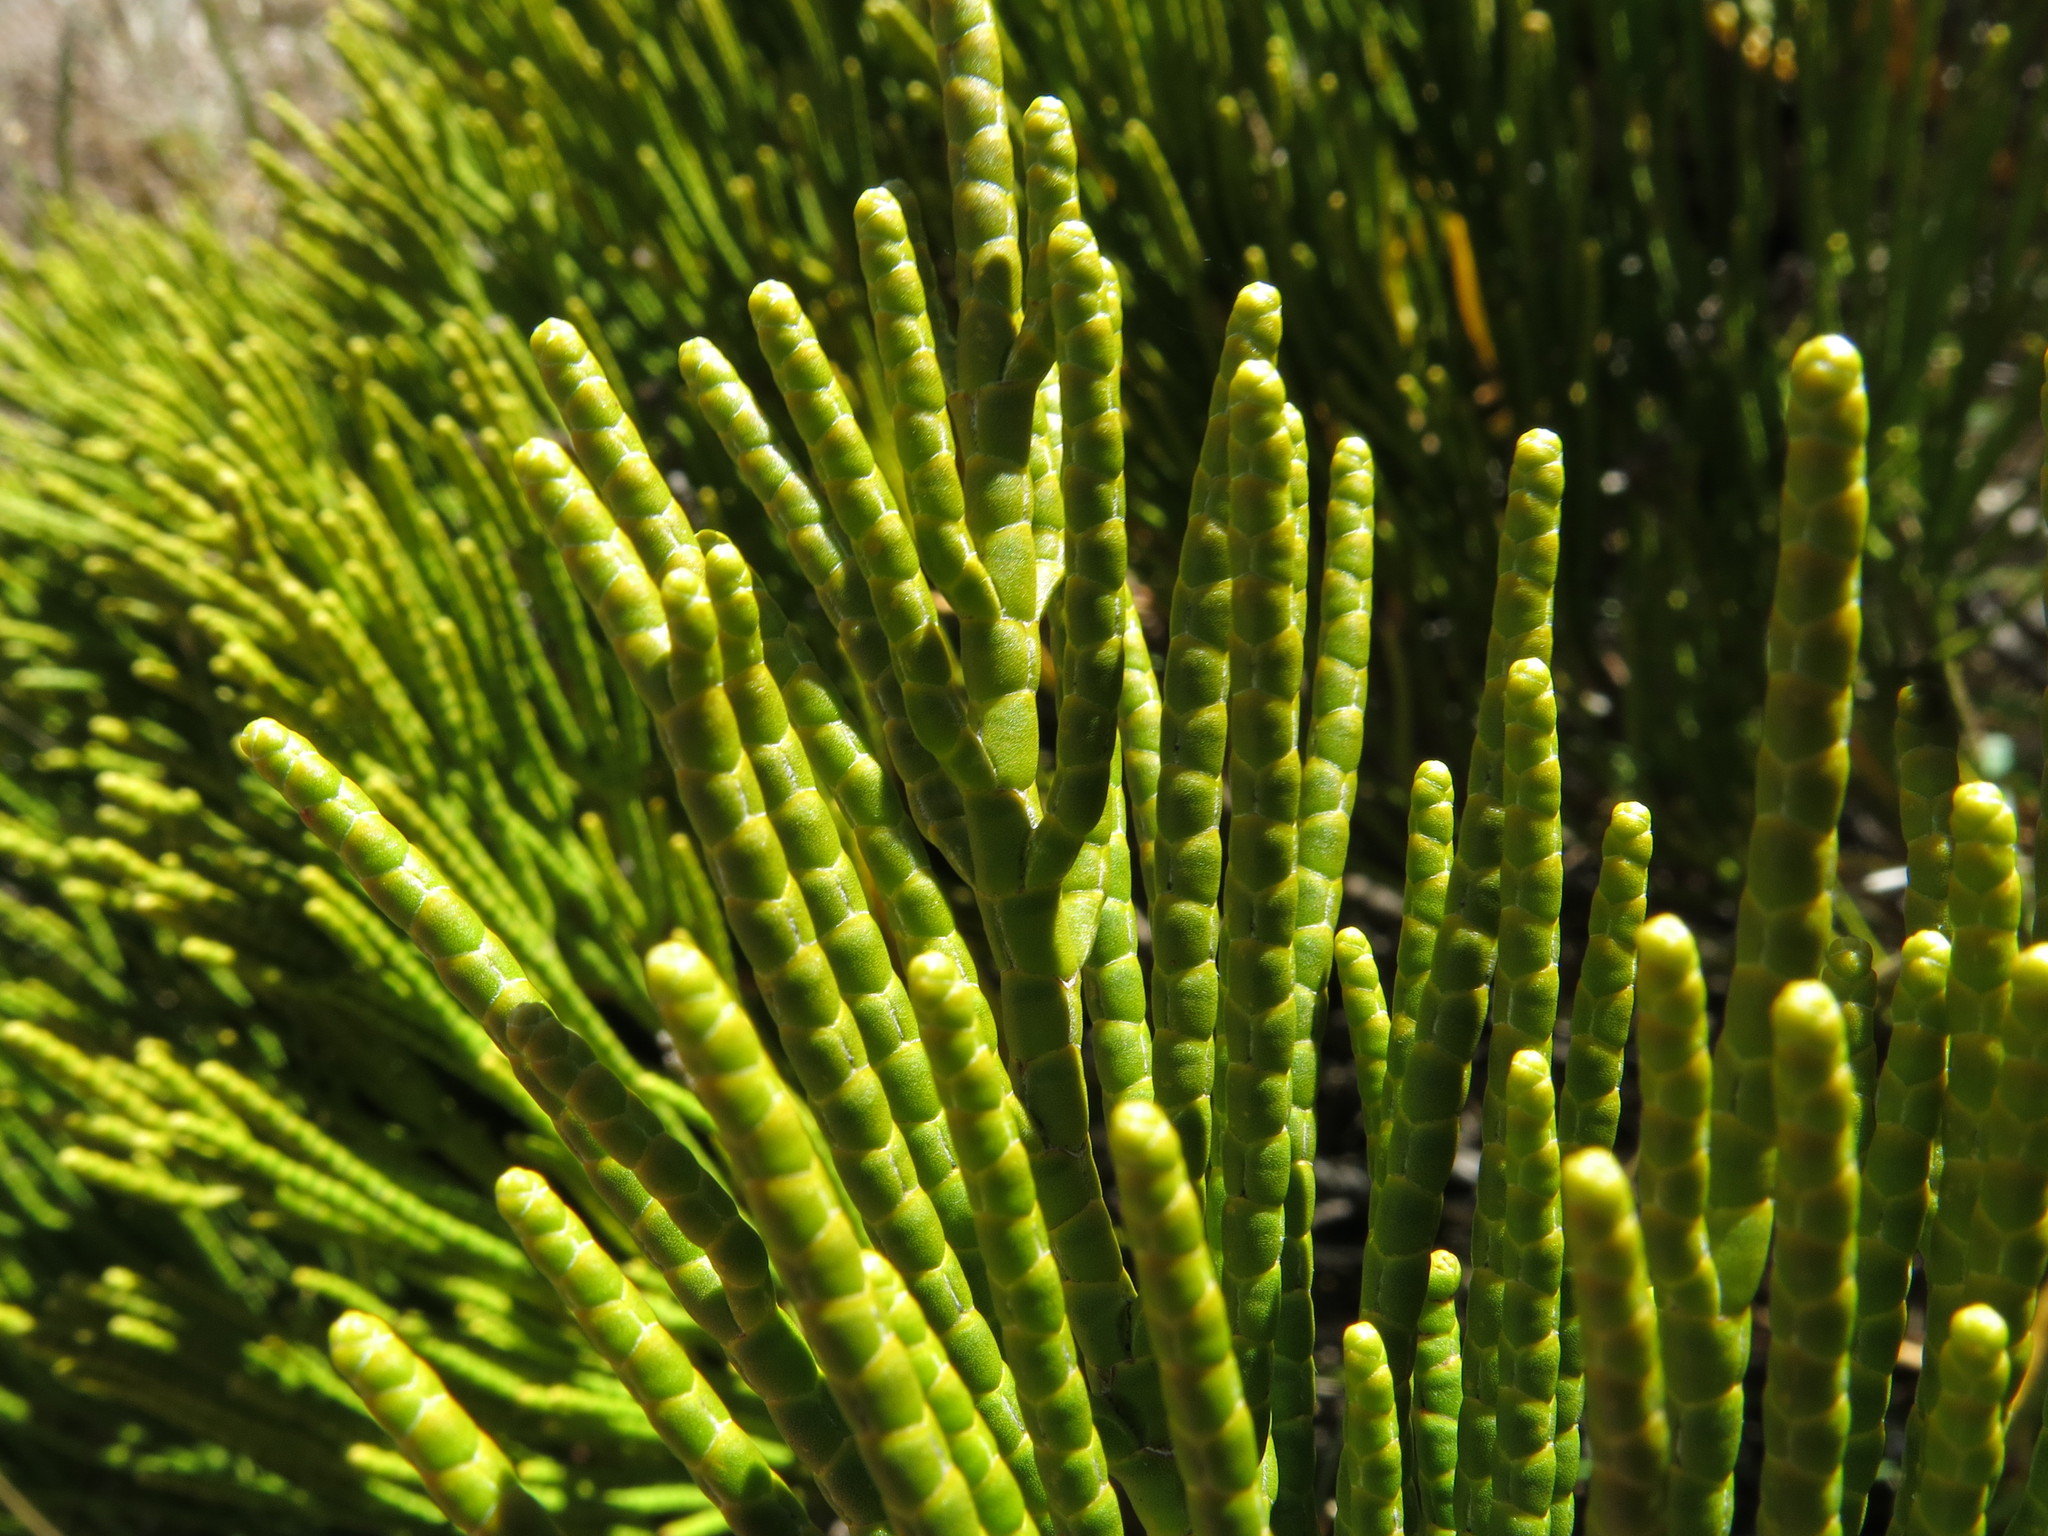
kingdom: Plantae
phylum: Tracheophyta
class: Magnoliopsida
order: Lamiales
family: Plantaginaceae
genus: Veronica
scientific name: Veronica salicornioides
